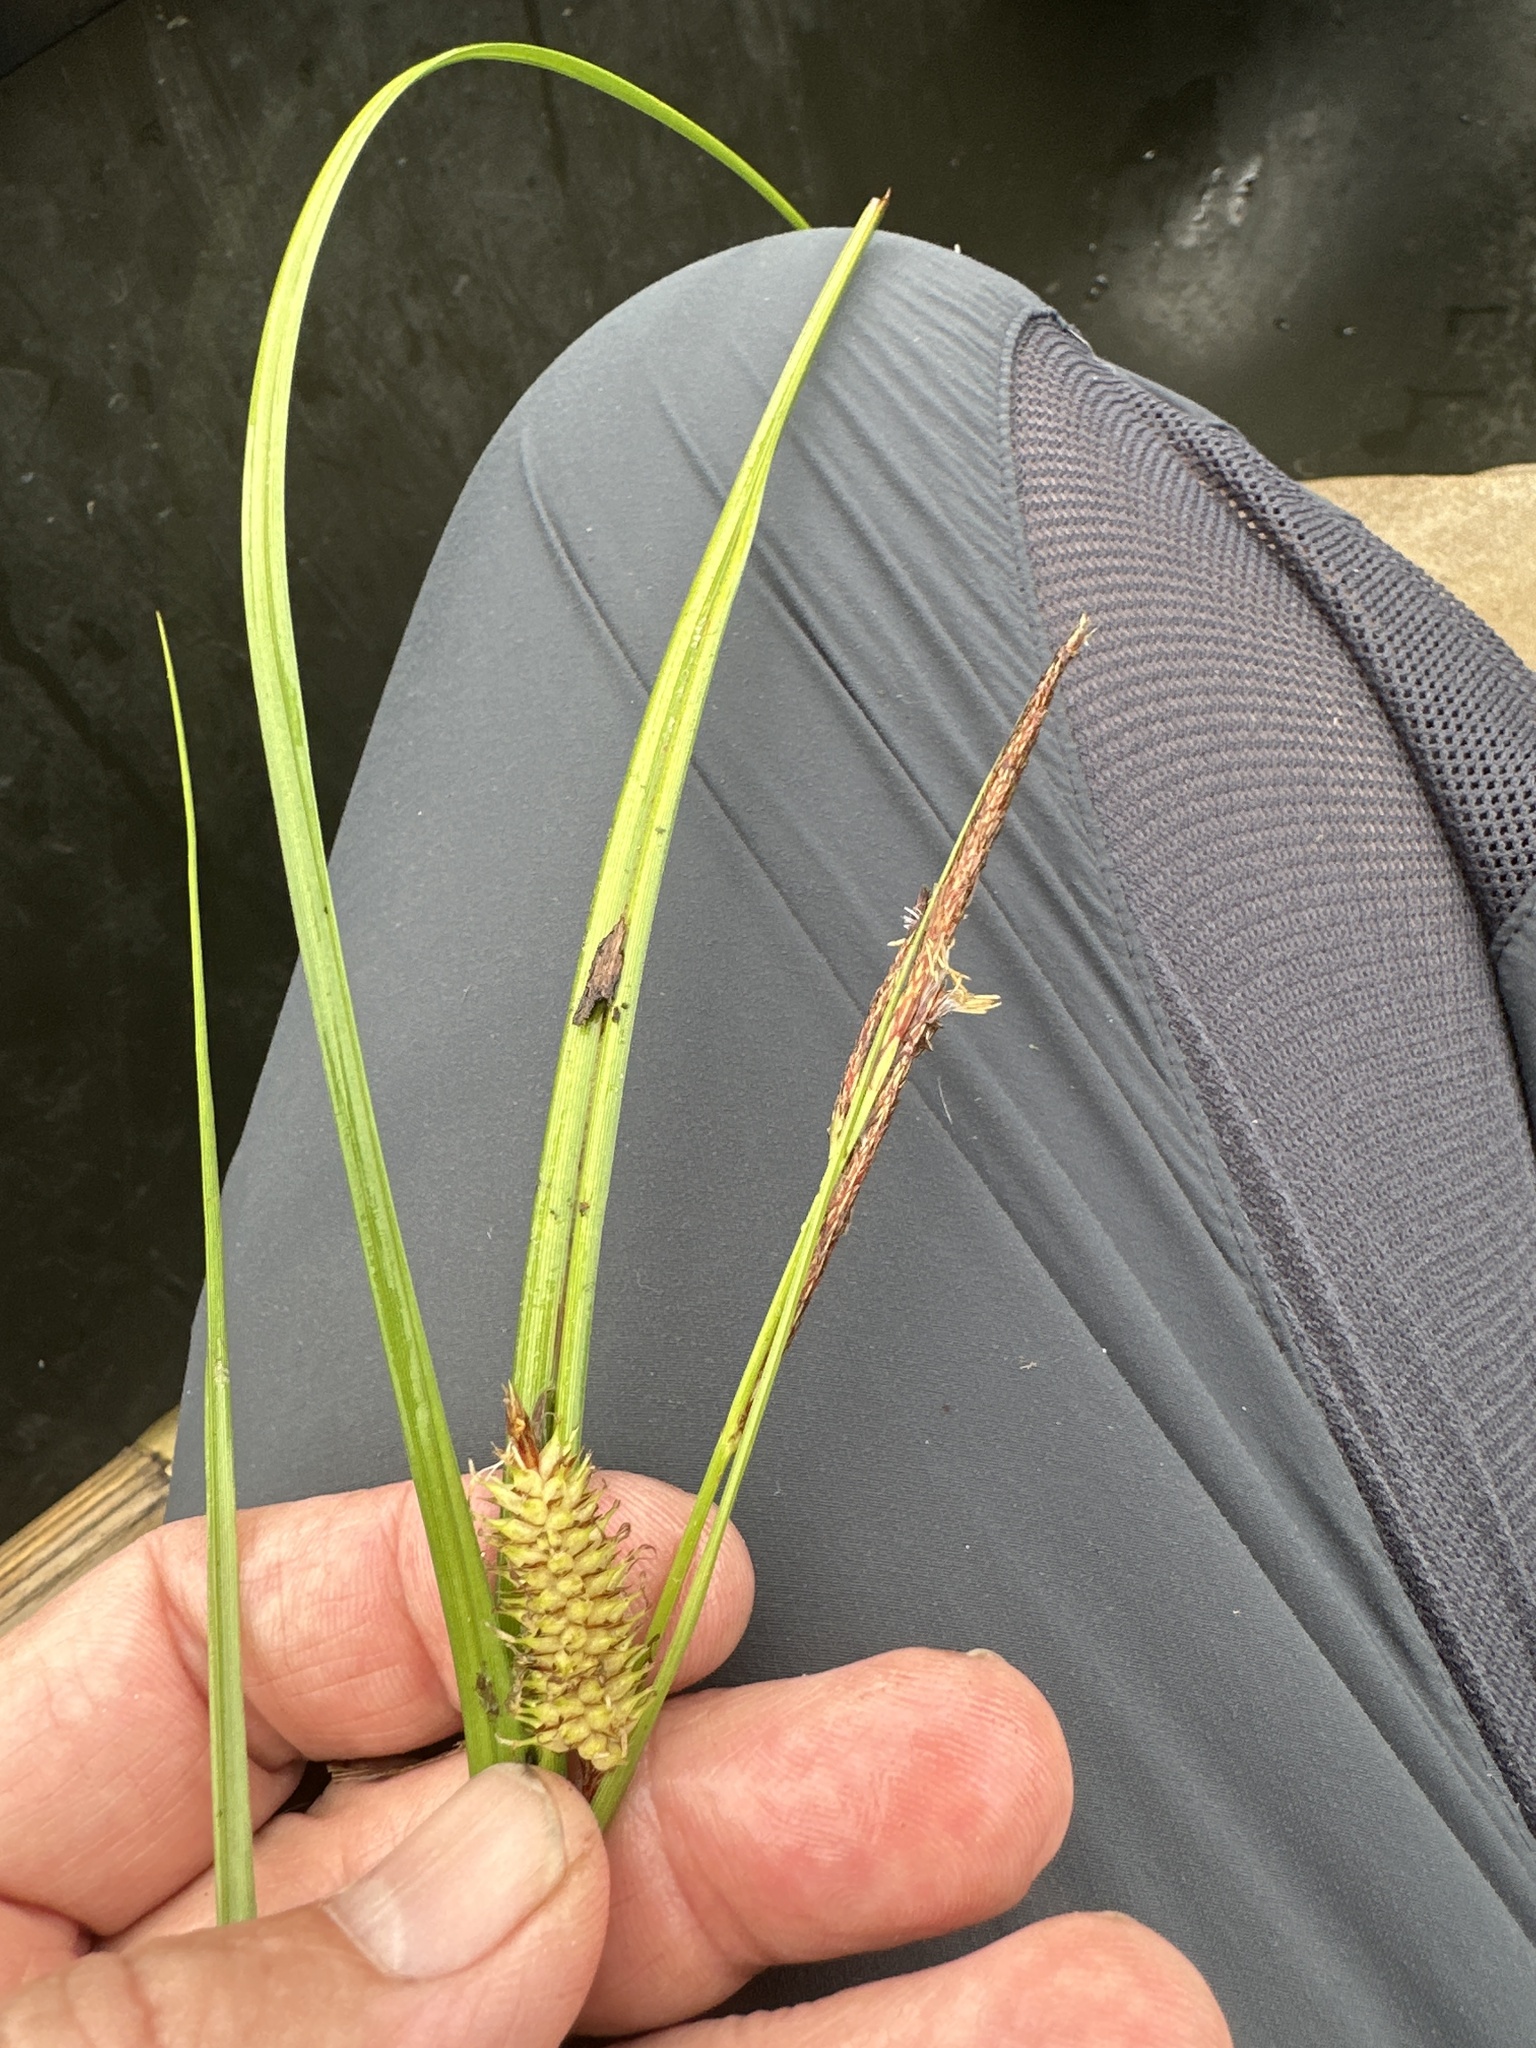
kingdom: Plantae
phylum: Tracheophyta
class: Liliopsida
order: Poales
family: Cyperaceae
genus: Carex
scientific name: Carex utriculata
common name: Beaked sedge
